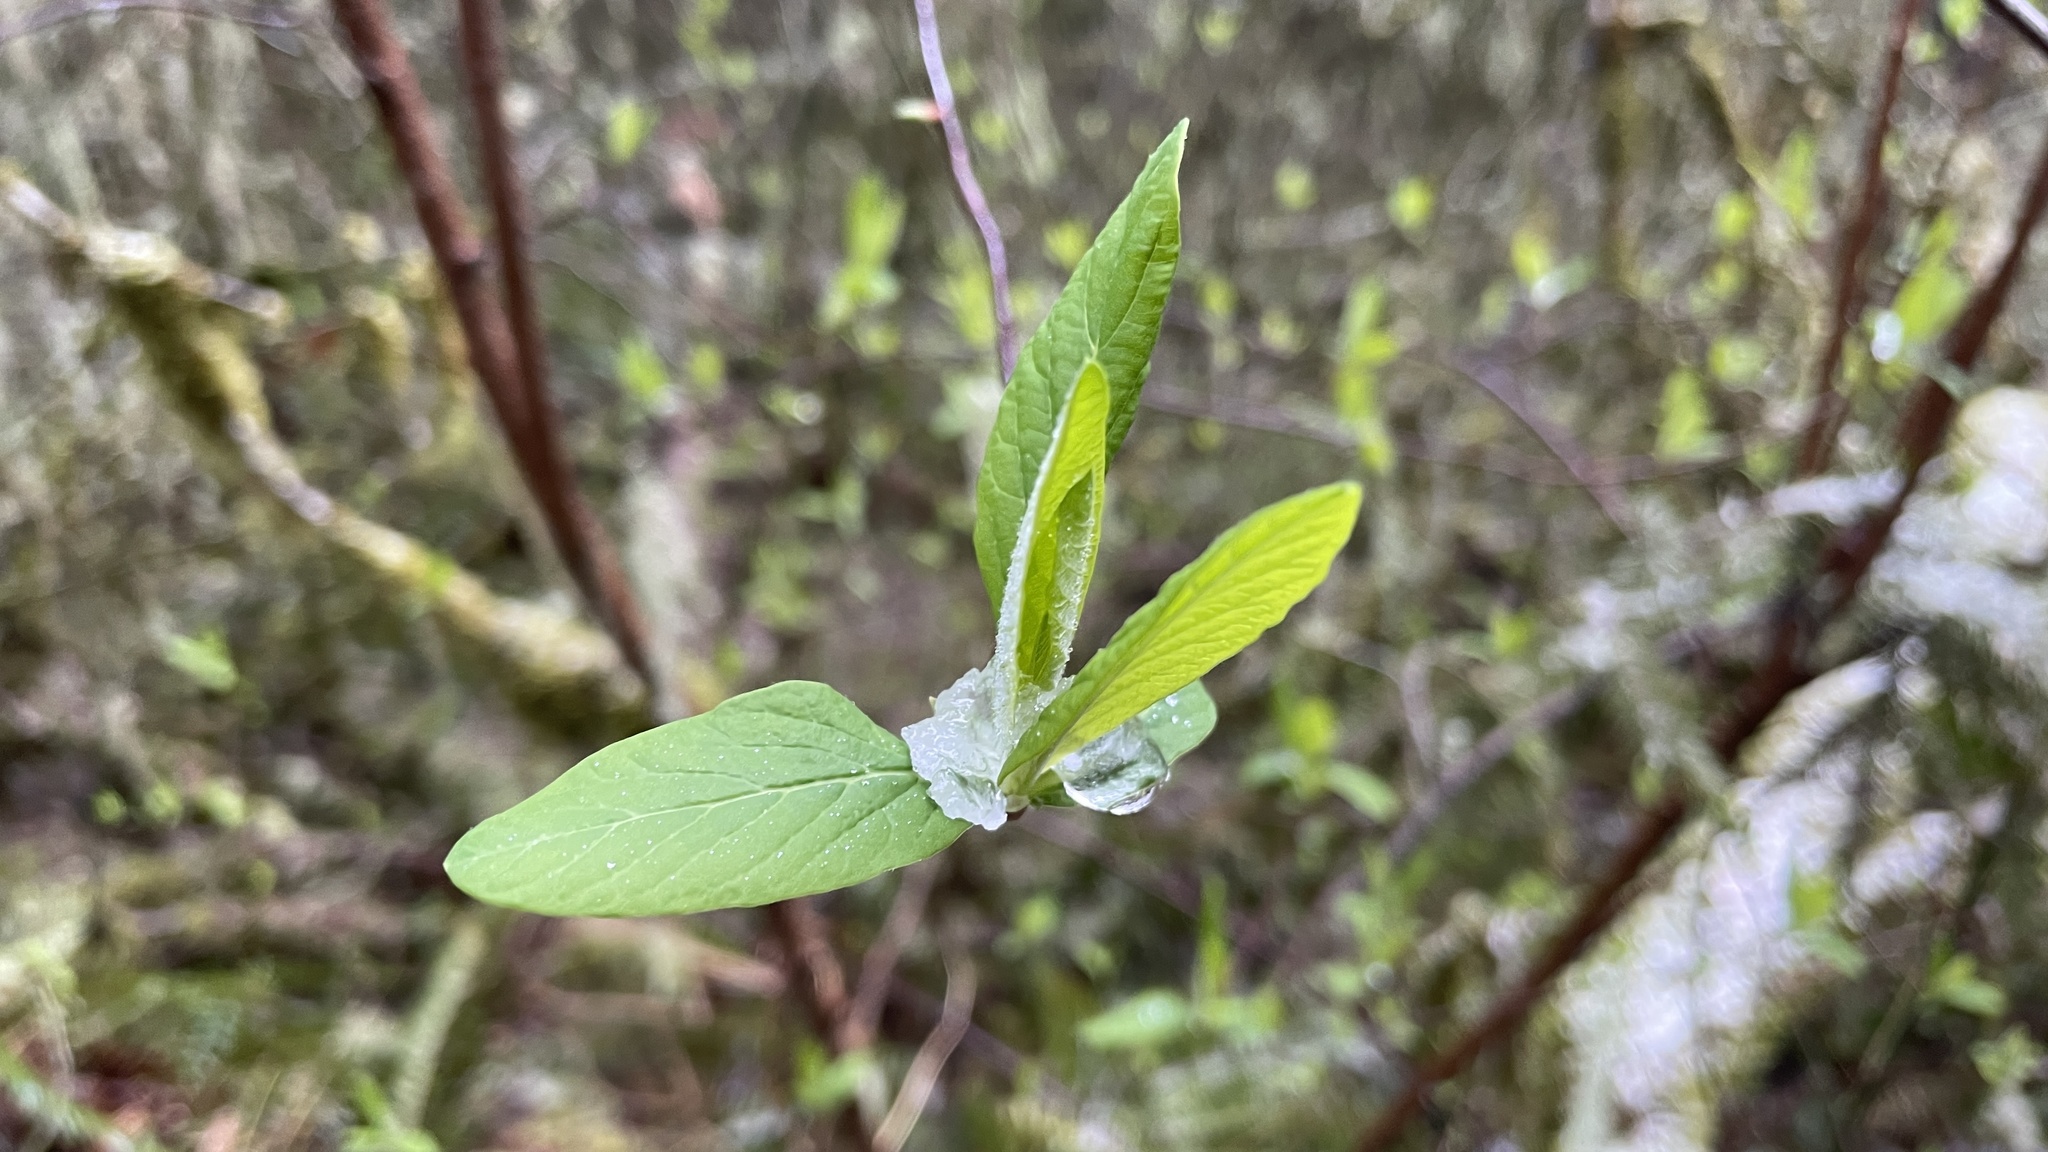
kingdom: Plantae
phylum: Tracheophyta
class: Magnoliopsida
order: Rosales
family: Rosaceae
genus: Oemleria
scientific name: Oemleria cerasiformis
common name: Osoberry
